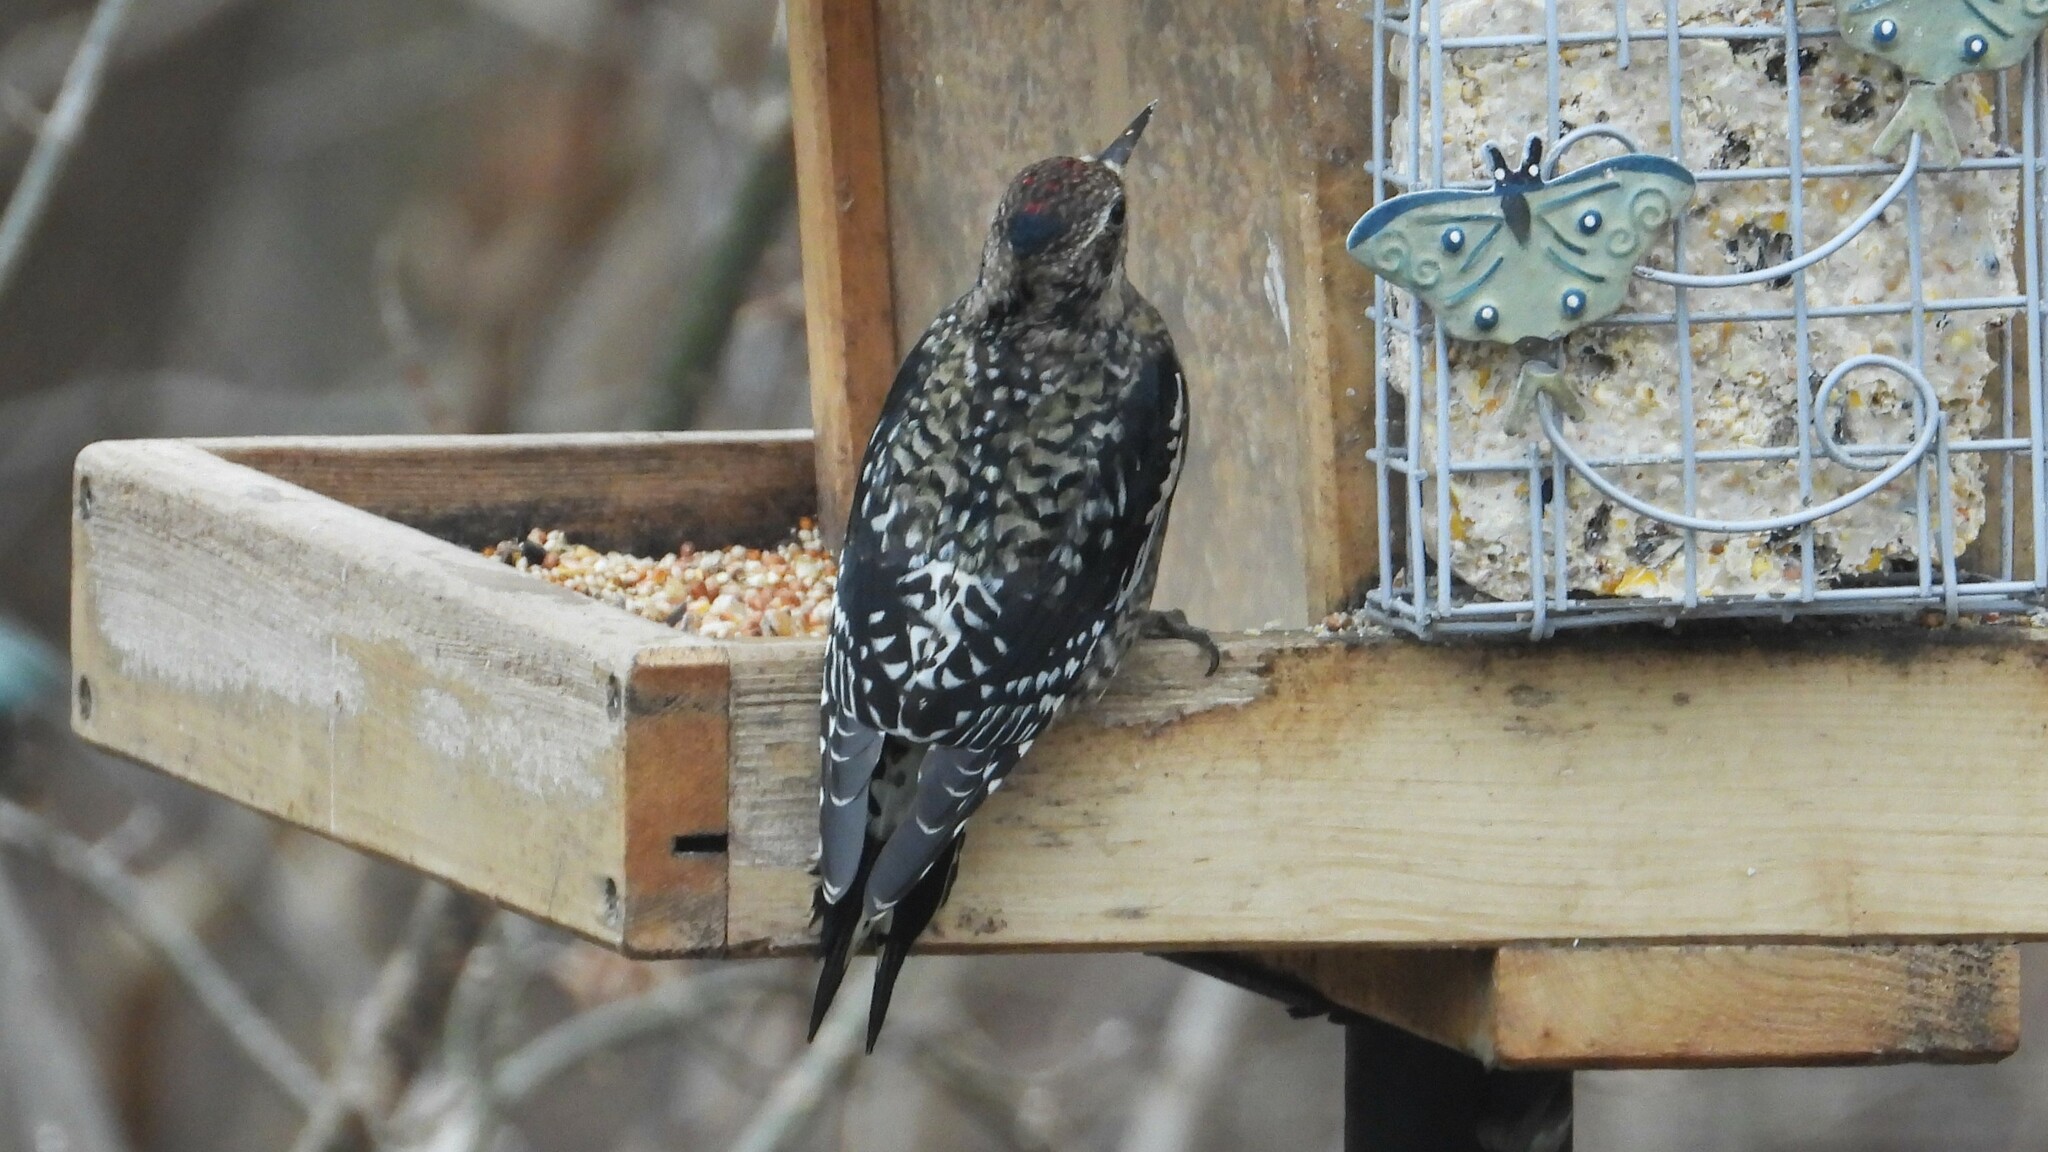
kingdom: Animalia
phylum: Chordata
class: Aves
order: Piciformes
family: Picidae
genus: Sphyrapicus
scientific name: Sphyrapicus varius
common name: Yellow-bellied sapsucker
